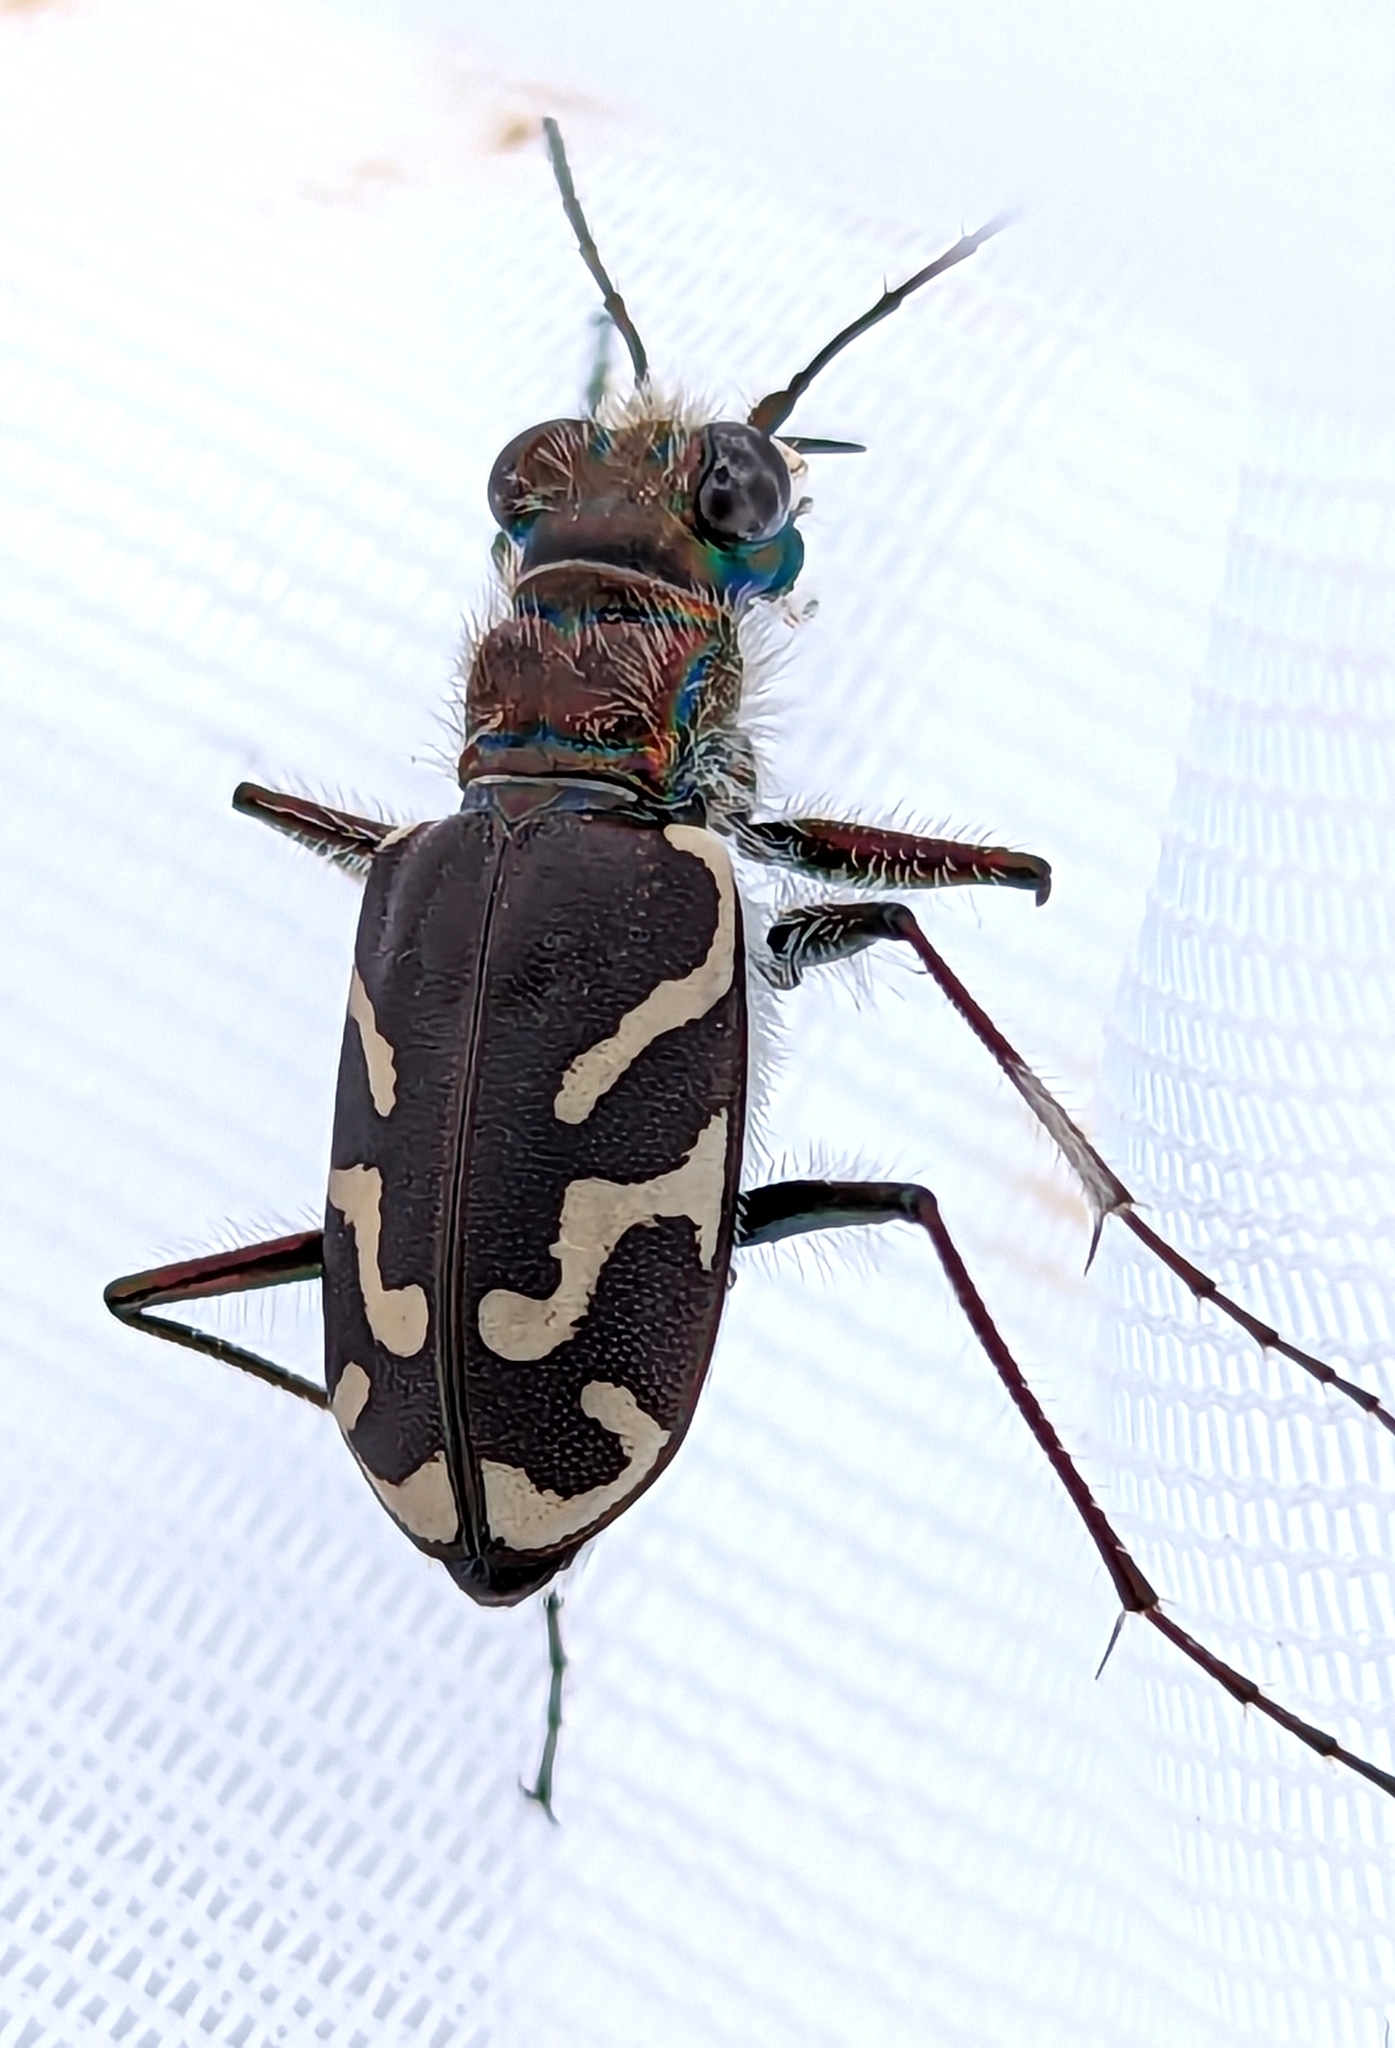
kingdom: Animalia
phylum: Arthropoda
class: Insecta
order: Coleoptera
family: Carabidae
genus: Cicindela
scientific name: Cicindela tranquebarica
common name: Oblique-lined tiger beetle
